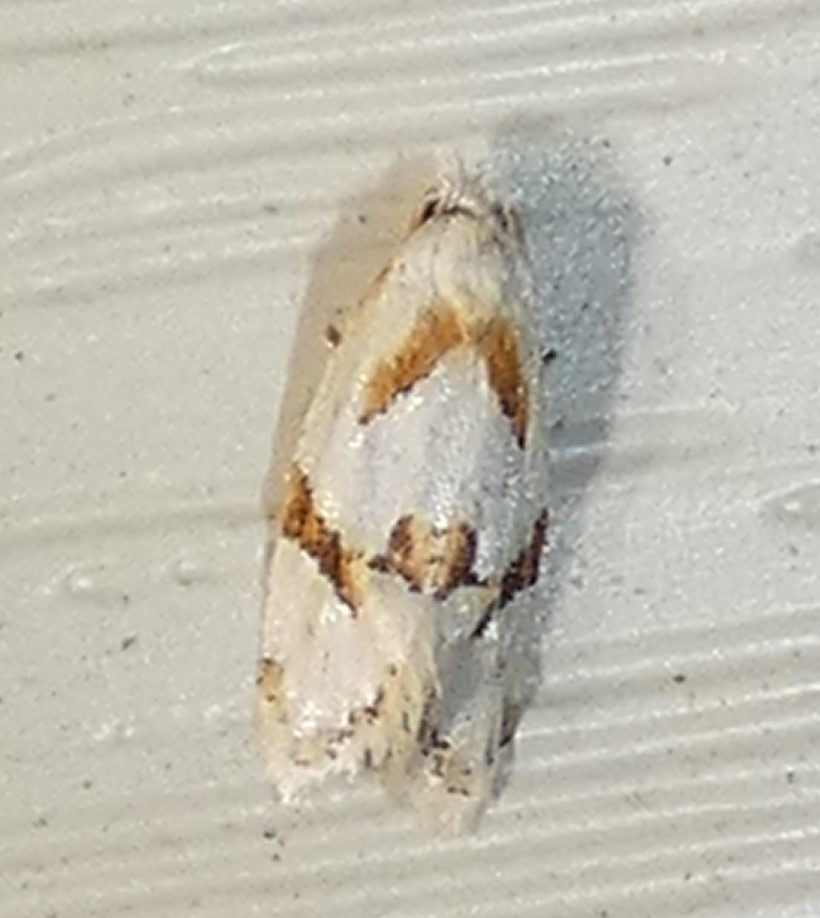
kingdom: Animalia
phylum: Arthropoda
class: Insecta
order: Lepidoptera
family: Tortricidae
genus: Aethes
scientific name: Aethes baloghi
